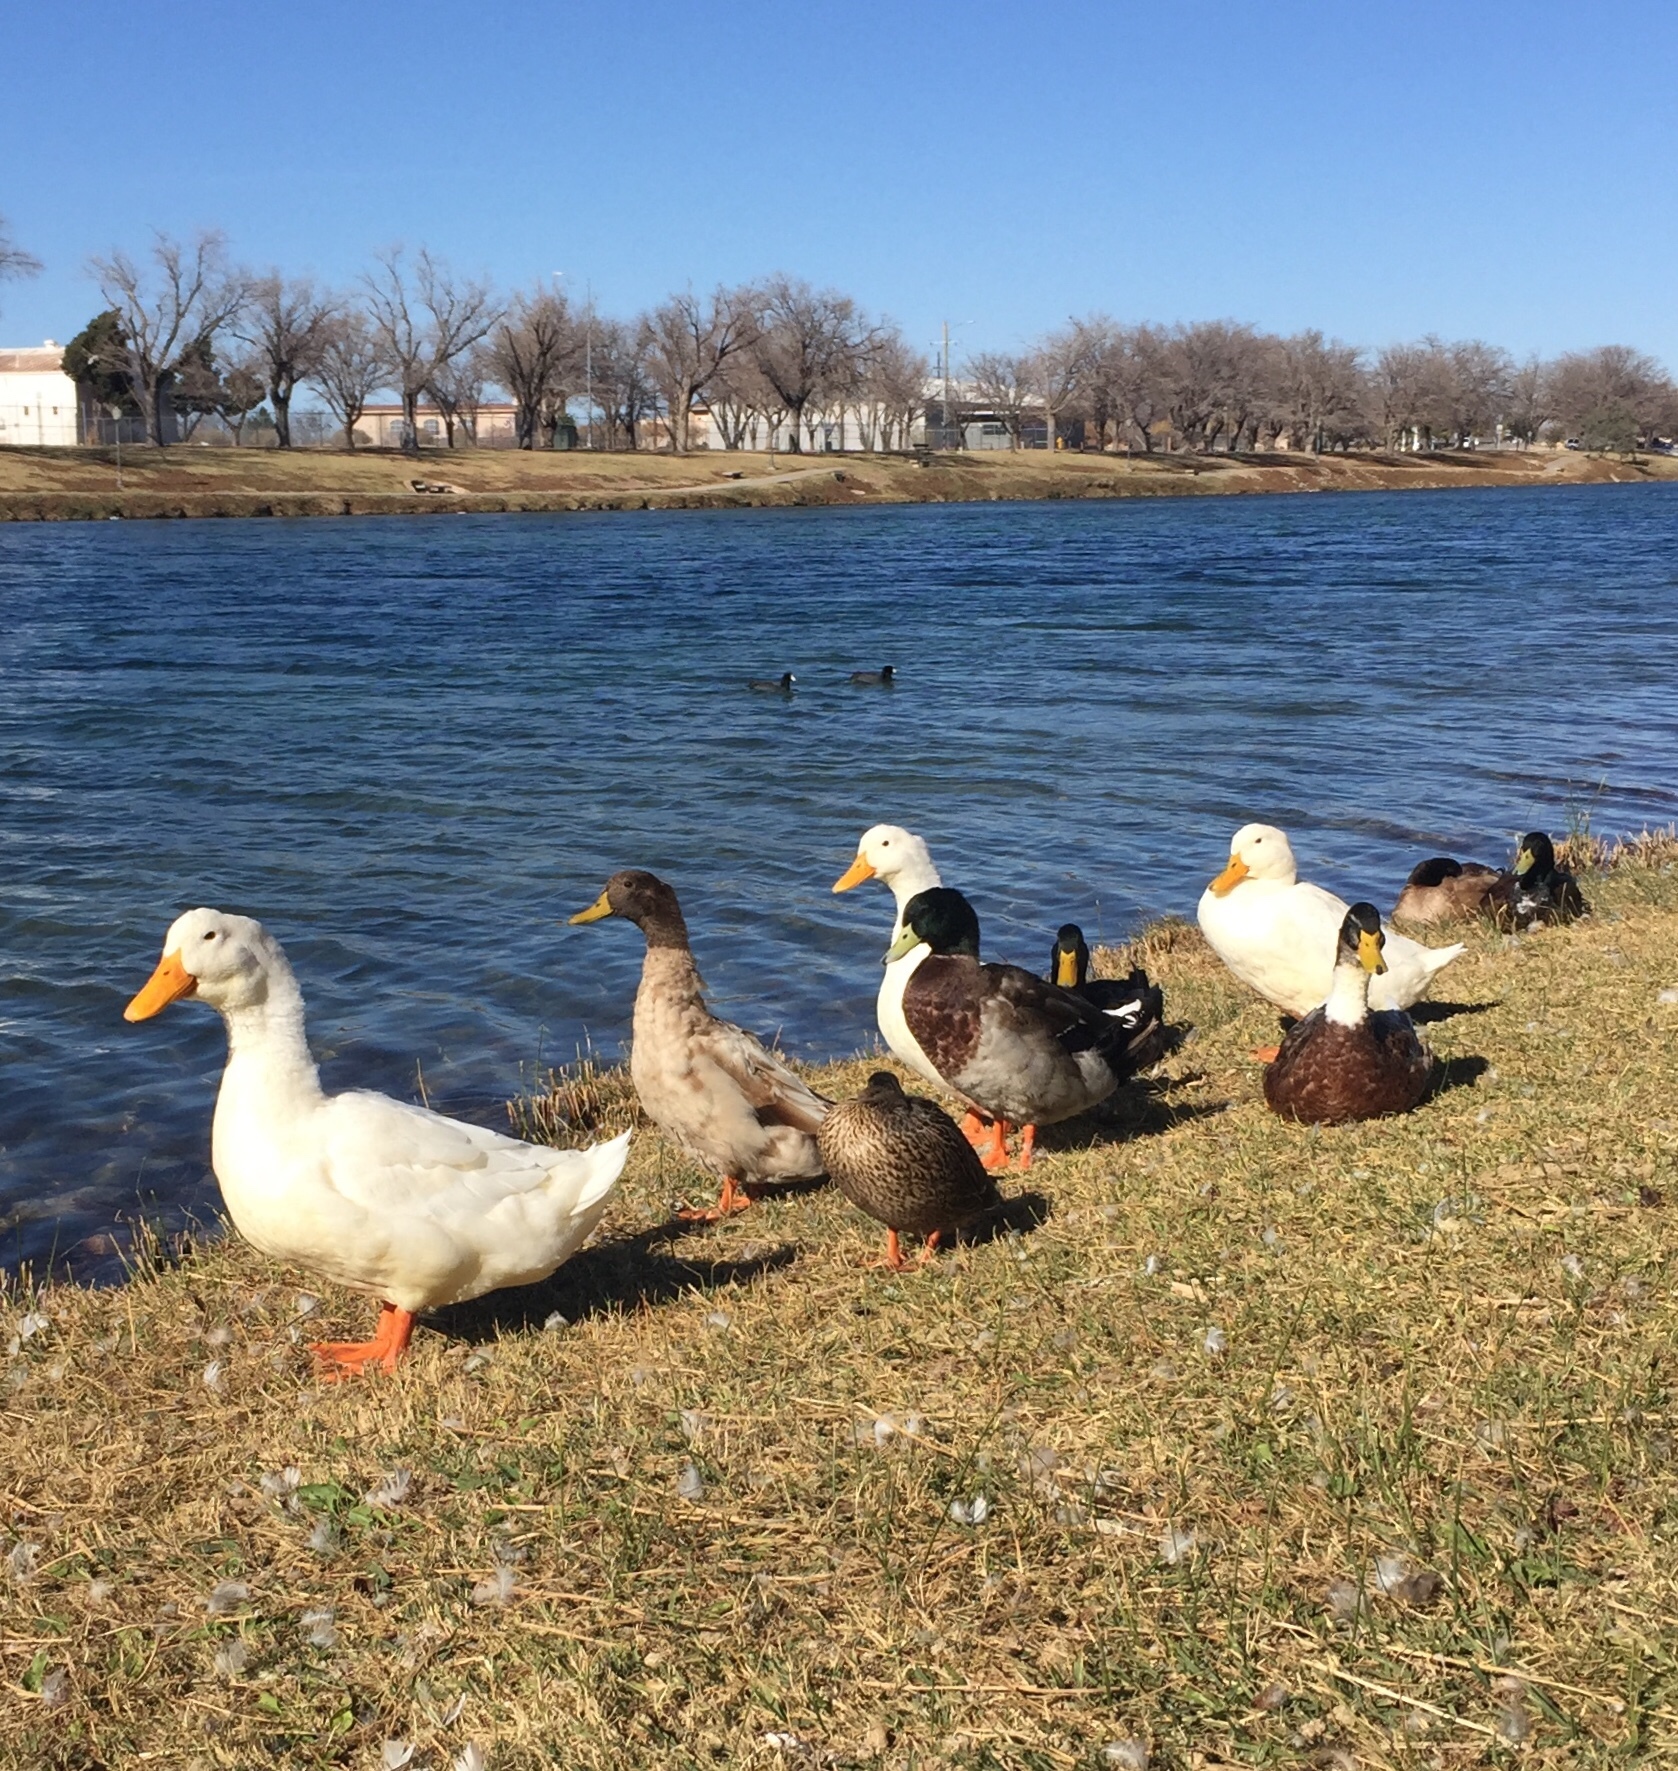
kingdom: Animalia
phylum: Chordata
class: Aves
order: Anseriformes
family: Anatidae
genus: Anas
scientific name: Anas platyrhynchos
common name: Mallard
